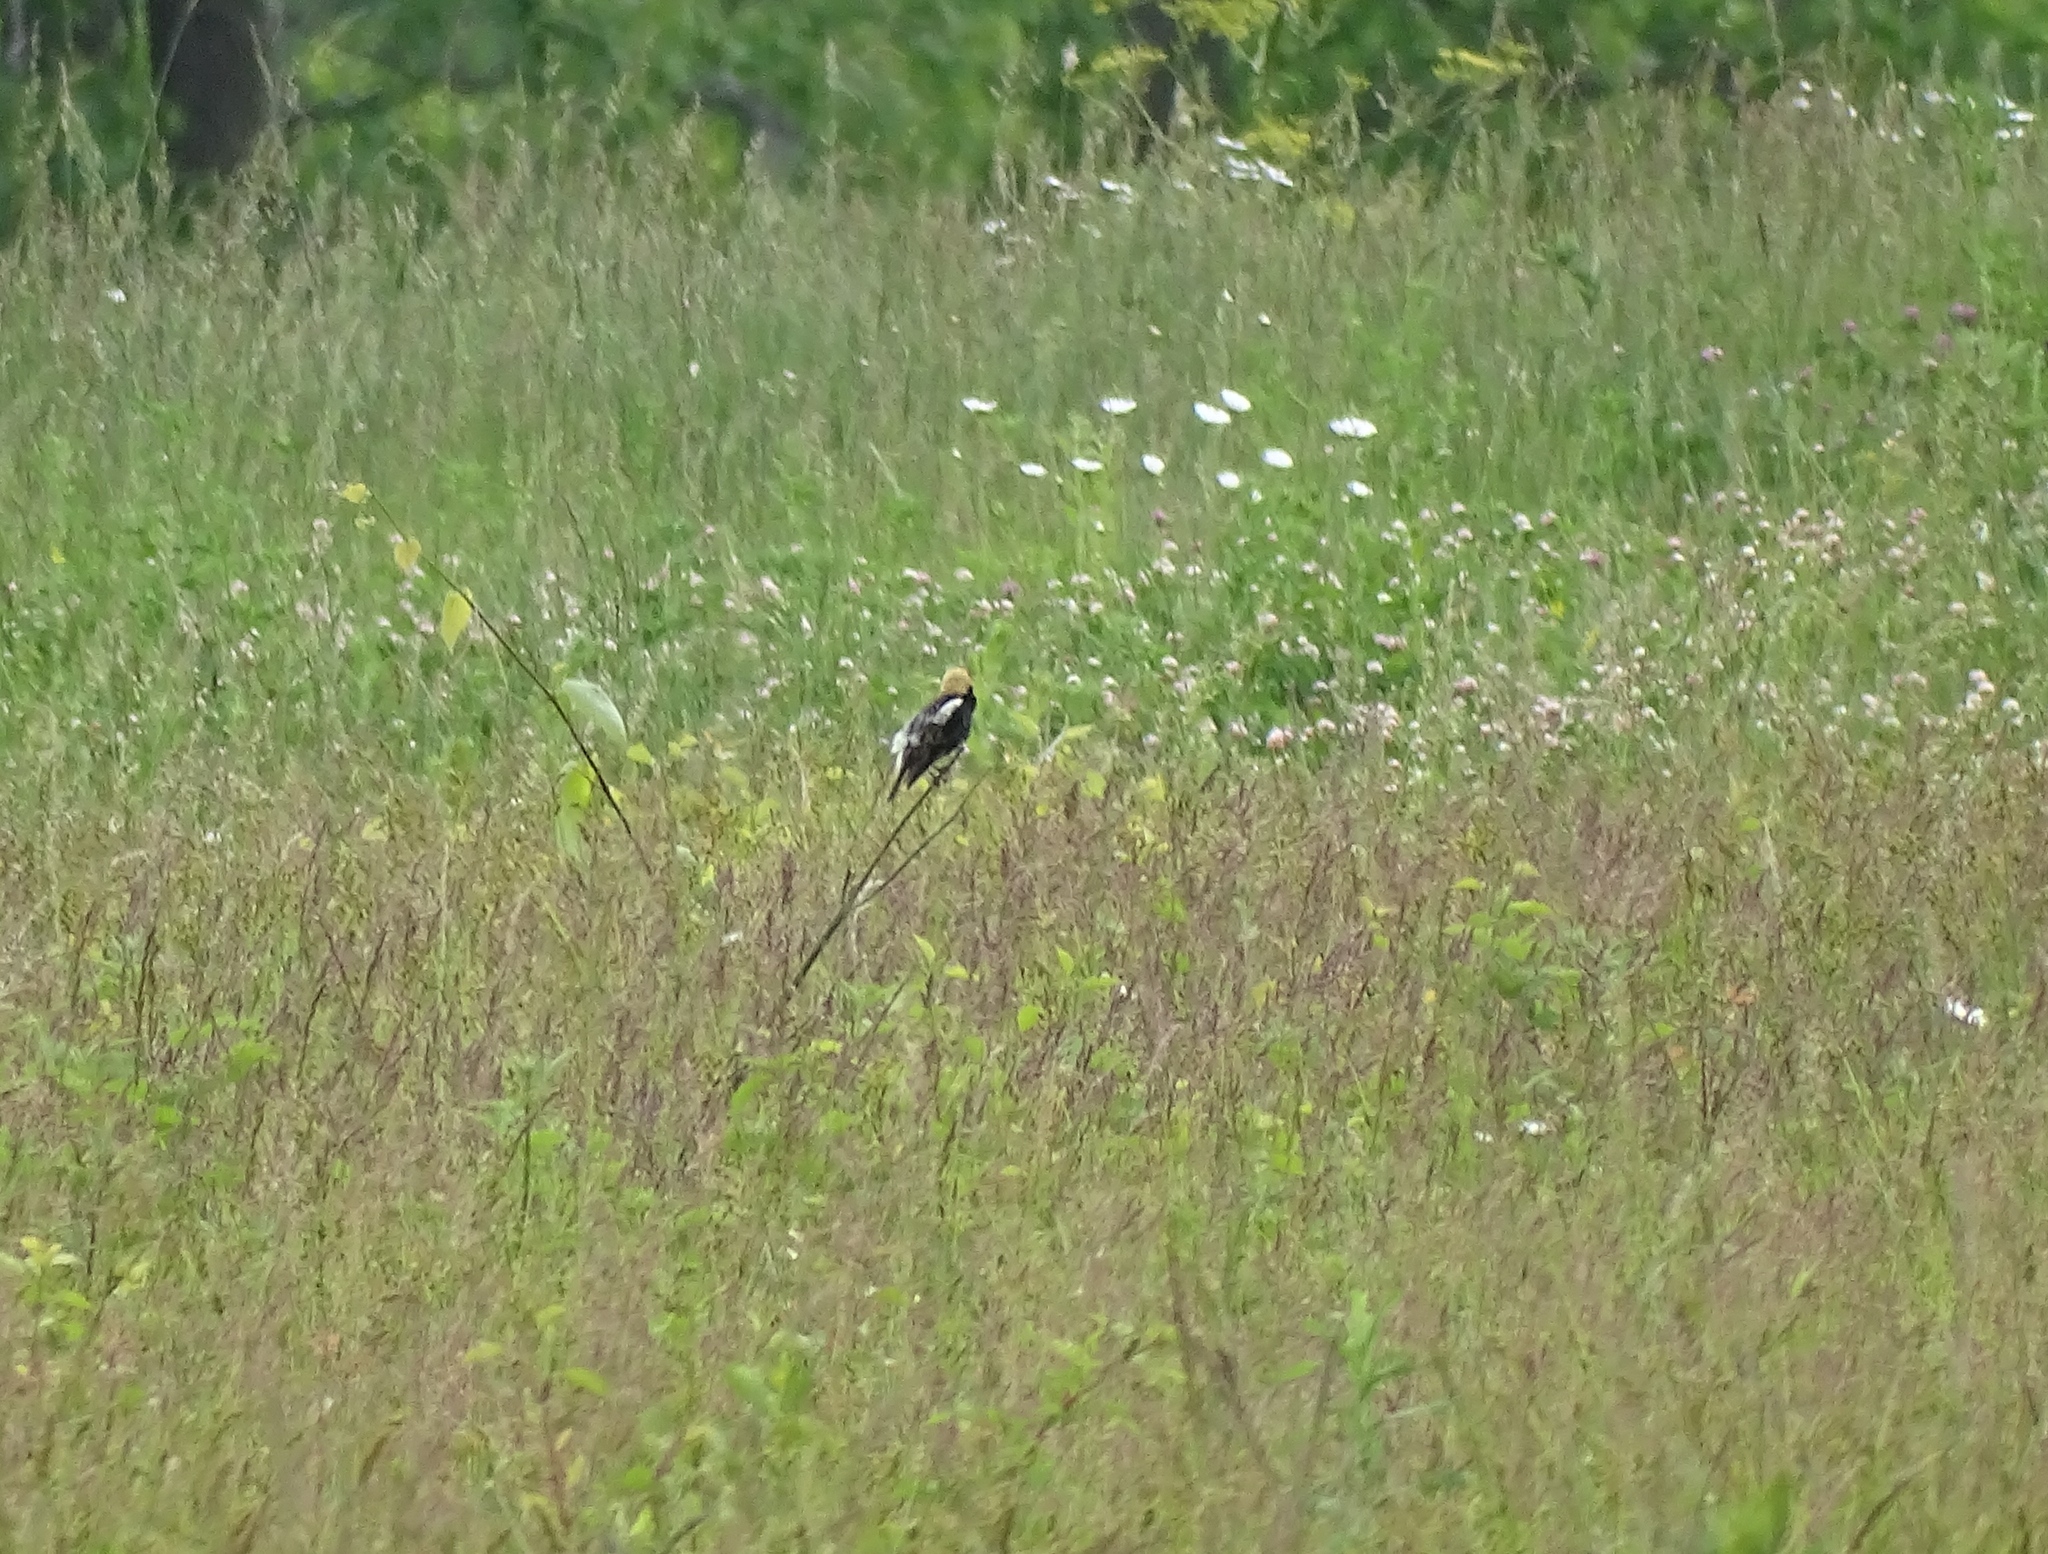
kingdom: Animalia
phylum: Chordata
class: Aves
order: Passeriformes
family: Icteridae
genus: Dolichonyx
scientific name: Dolichonyx oryzivorus
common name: Bobolink
